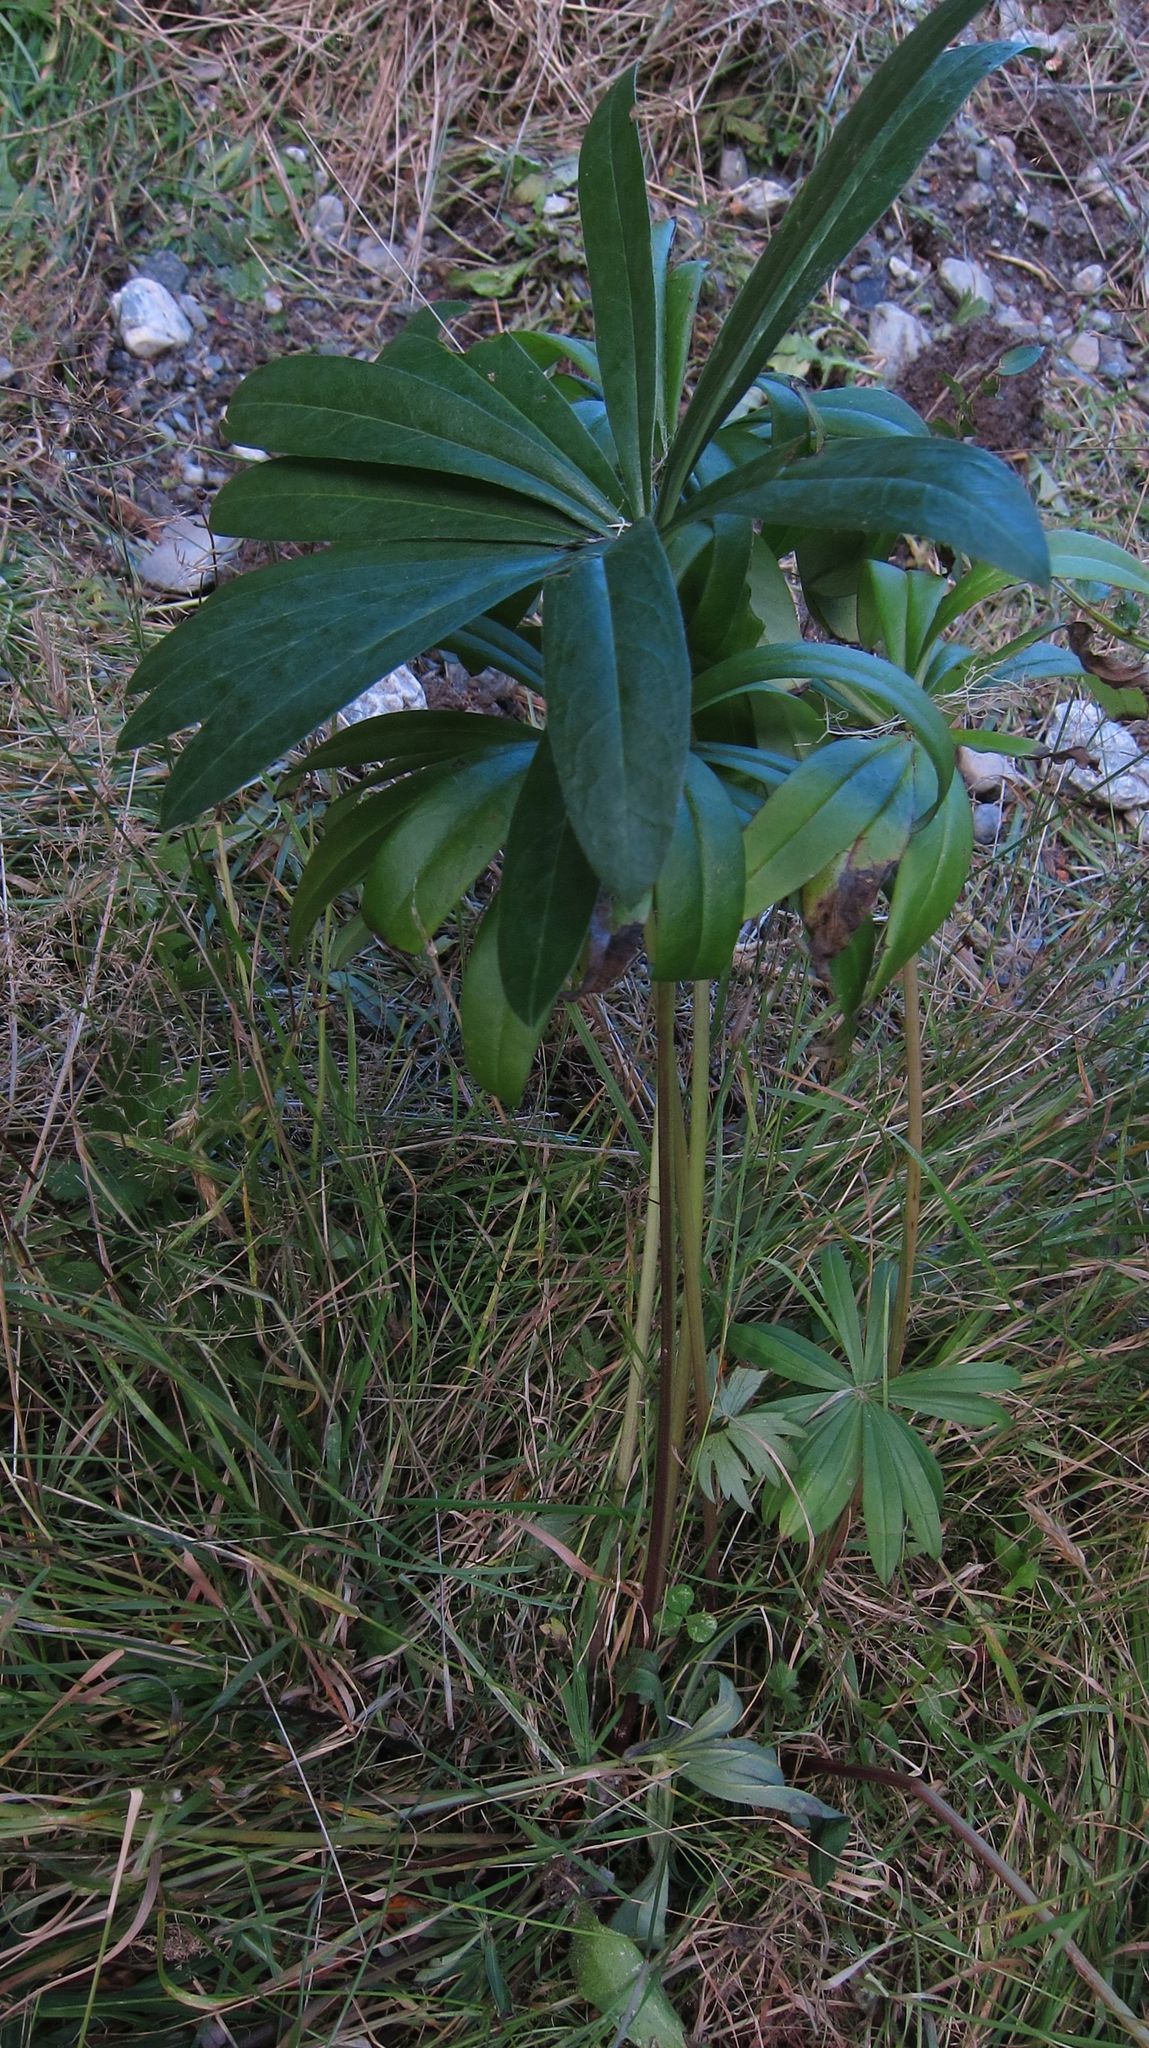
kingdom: Plantae
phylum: Tracheophyta
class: Magnoliopsida
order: Fabales
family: Fabaceae
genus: Lupinus
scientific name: Lupinus polyphyllus
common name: Garden lupin
